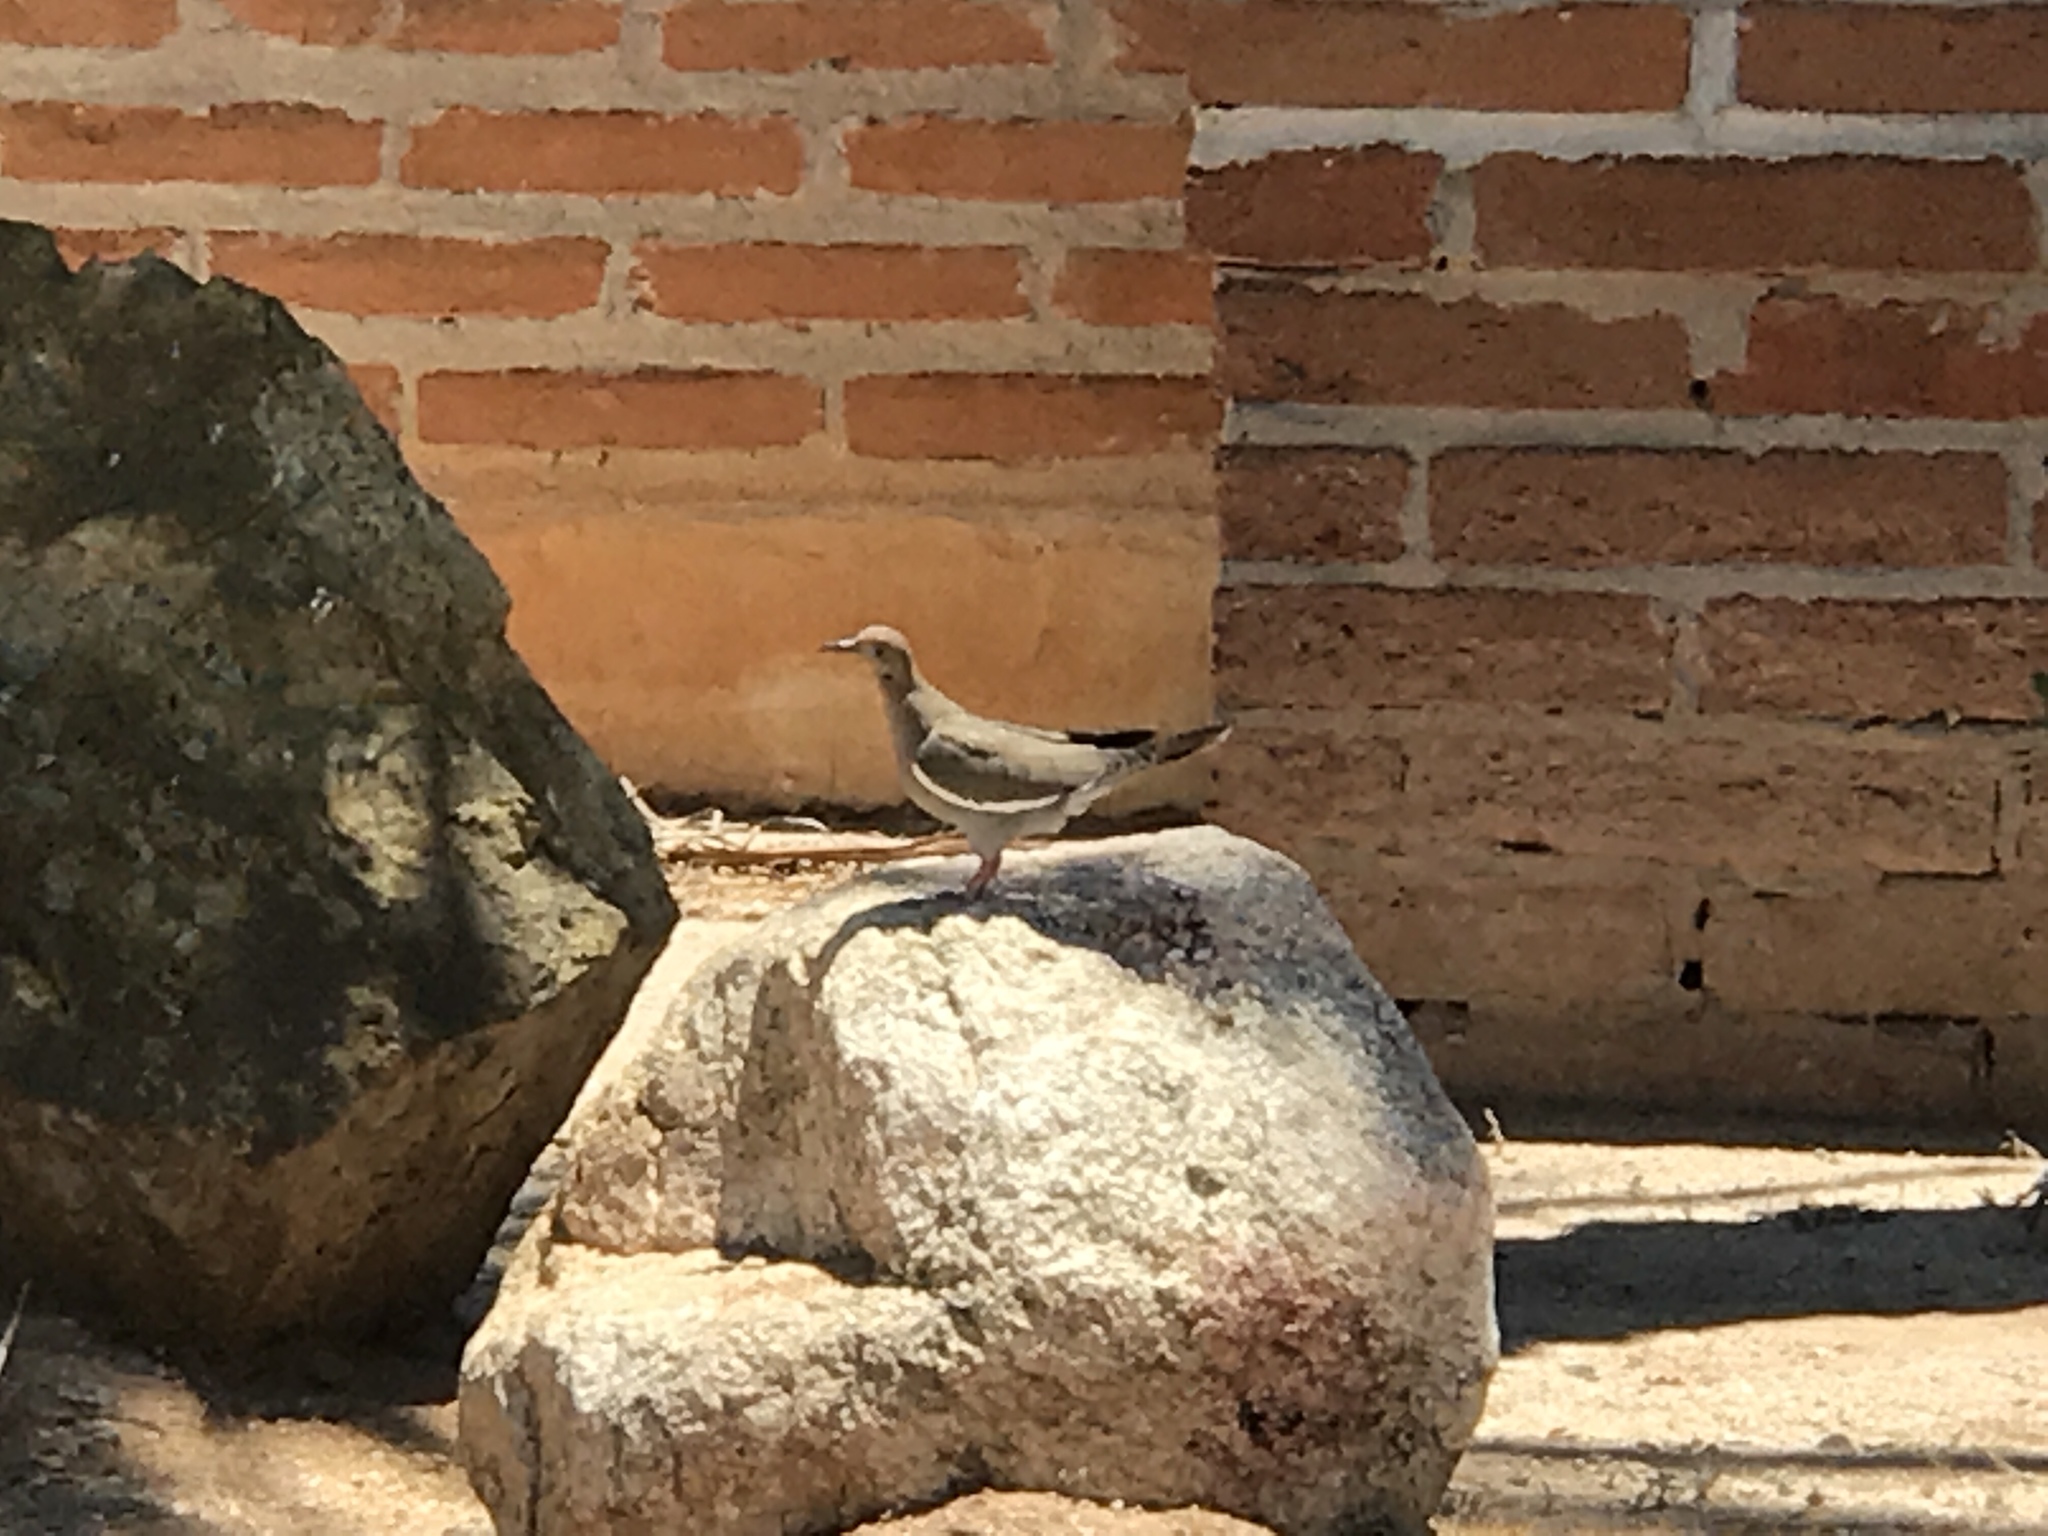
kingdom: Animalia
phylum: Chordata
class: Aves
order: Columbiformes
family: Columbidae
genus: Zenaida
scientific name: Zenaida asiatica
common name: White-winged dove
